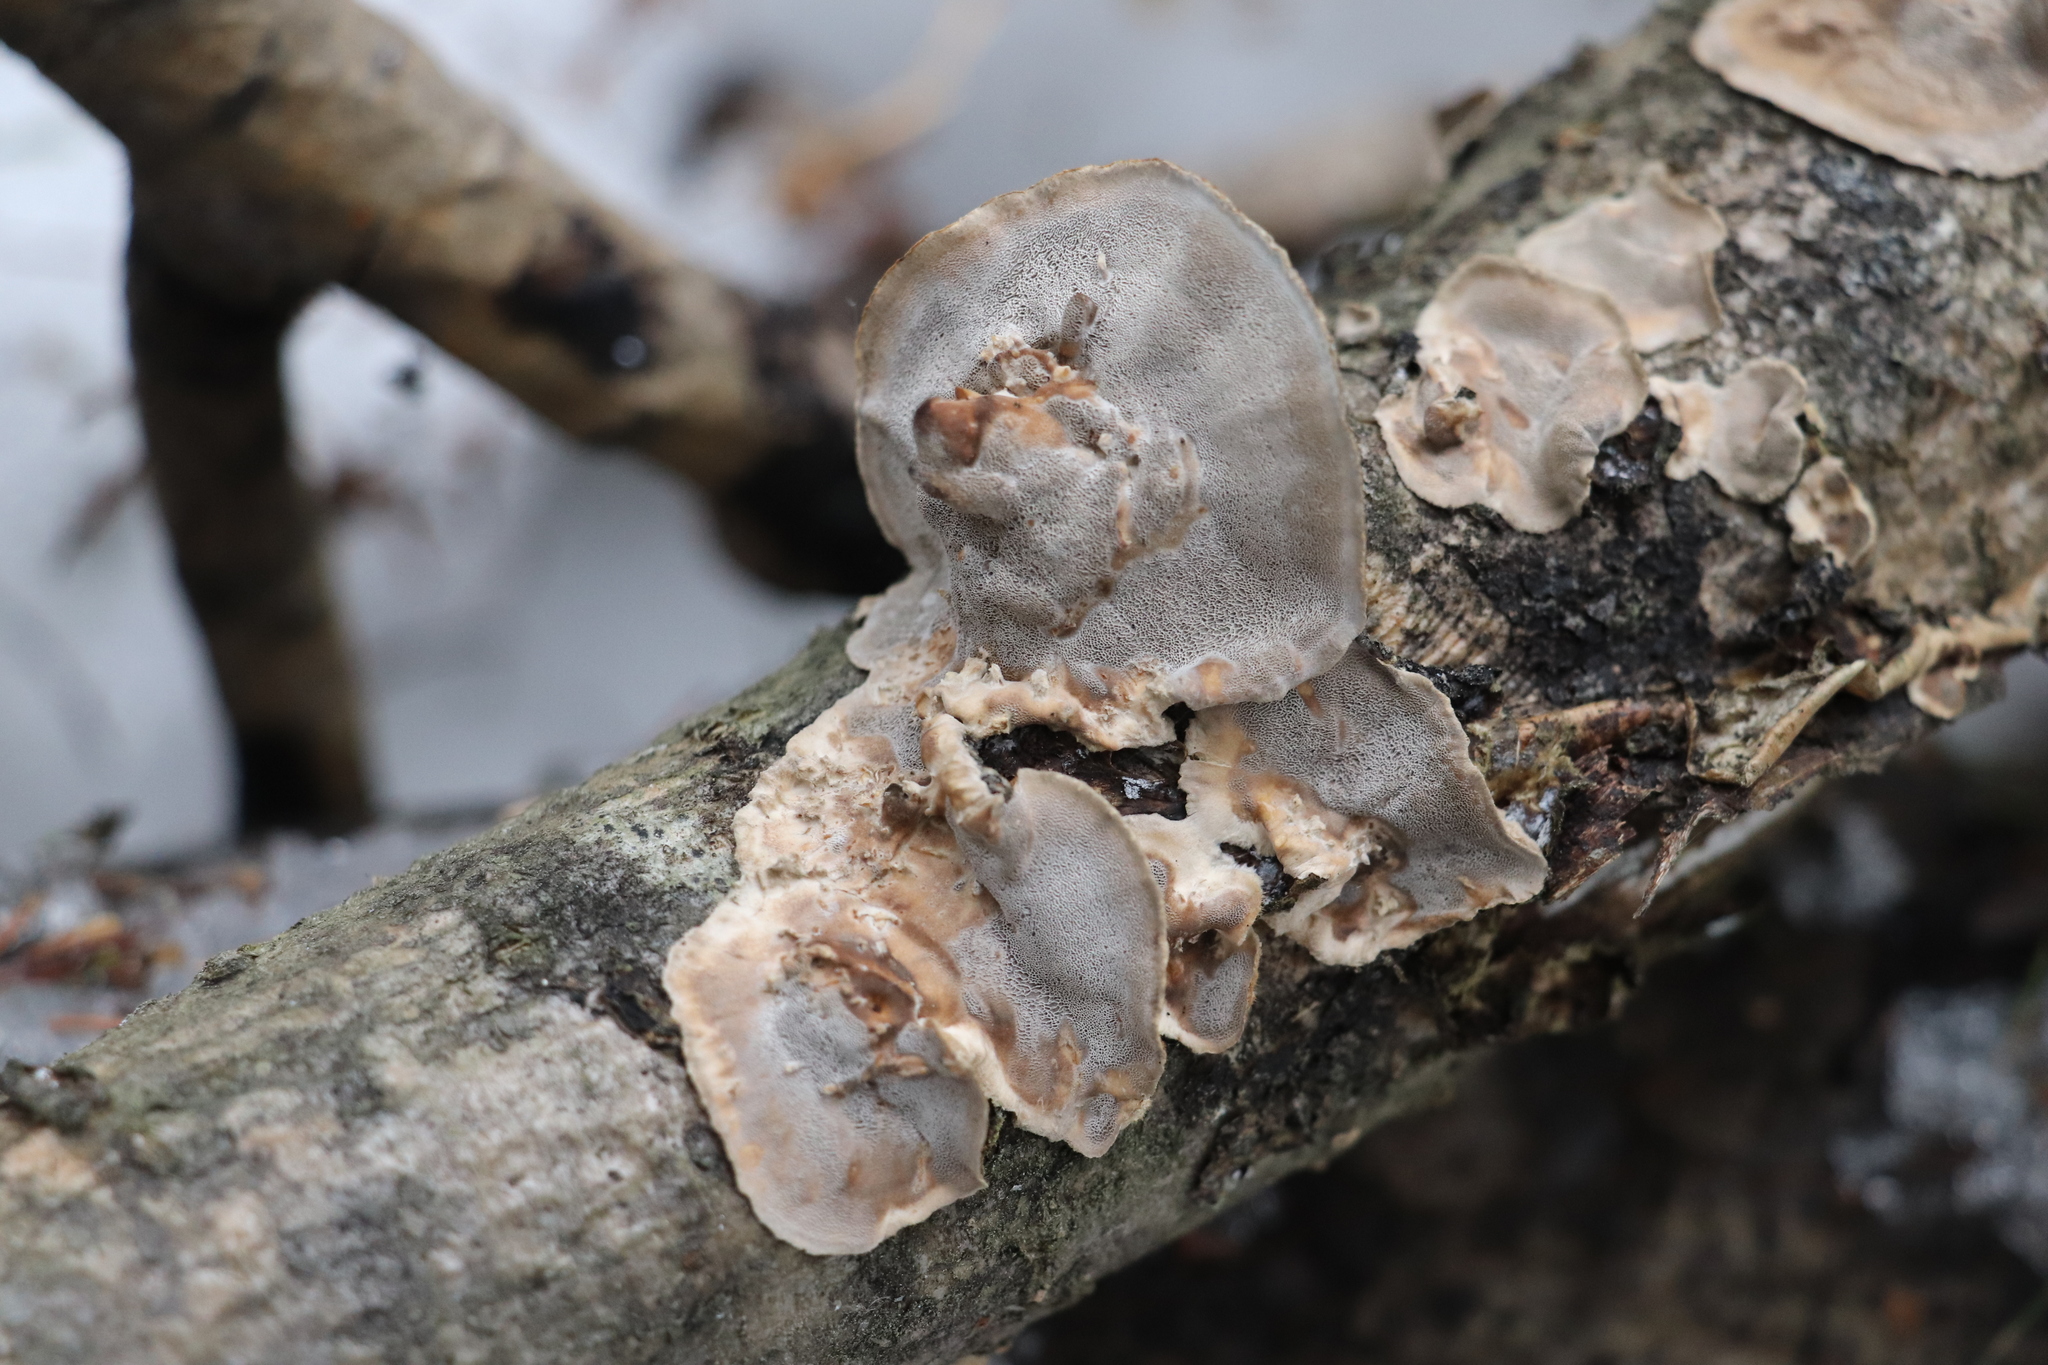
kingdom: Fungi
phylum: Basidiomycota
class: Agaricomycetes
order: Polyporales
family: Phanerochaetaceae
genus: Bjerkandera
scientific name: Bjerkandera adusta
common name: Smoky bracket
